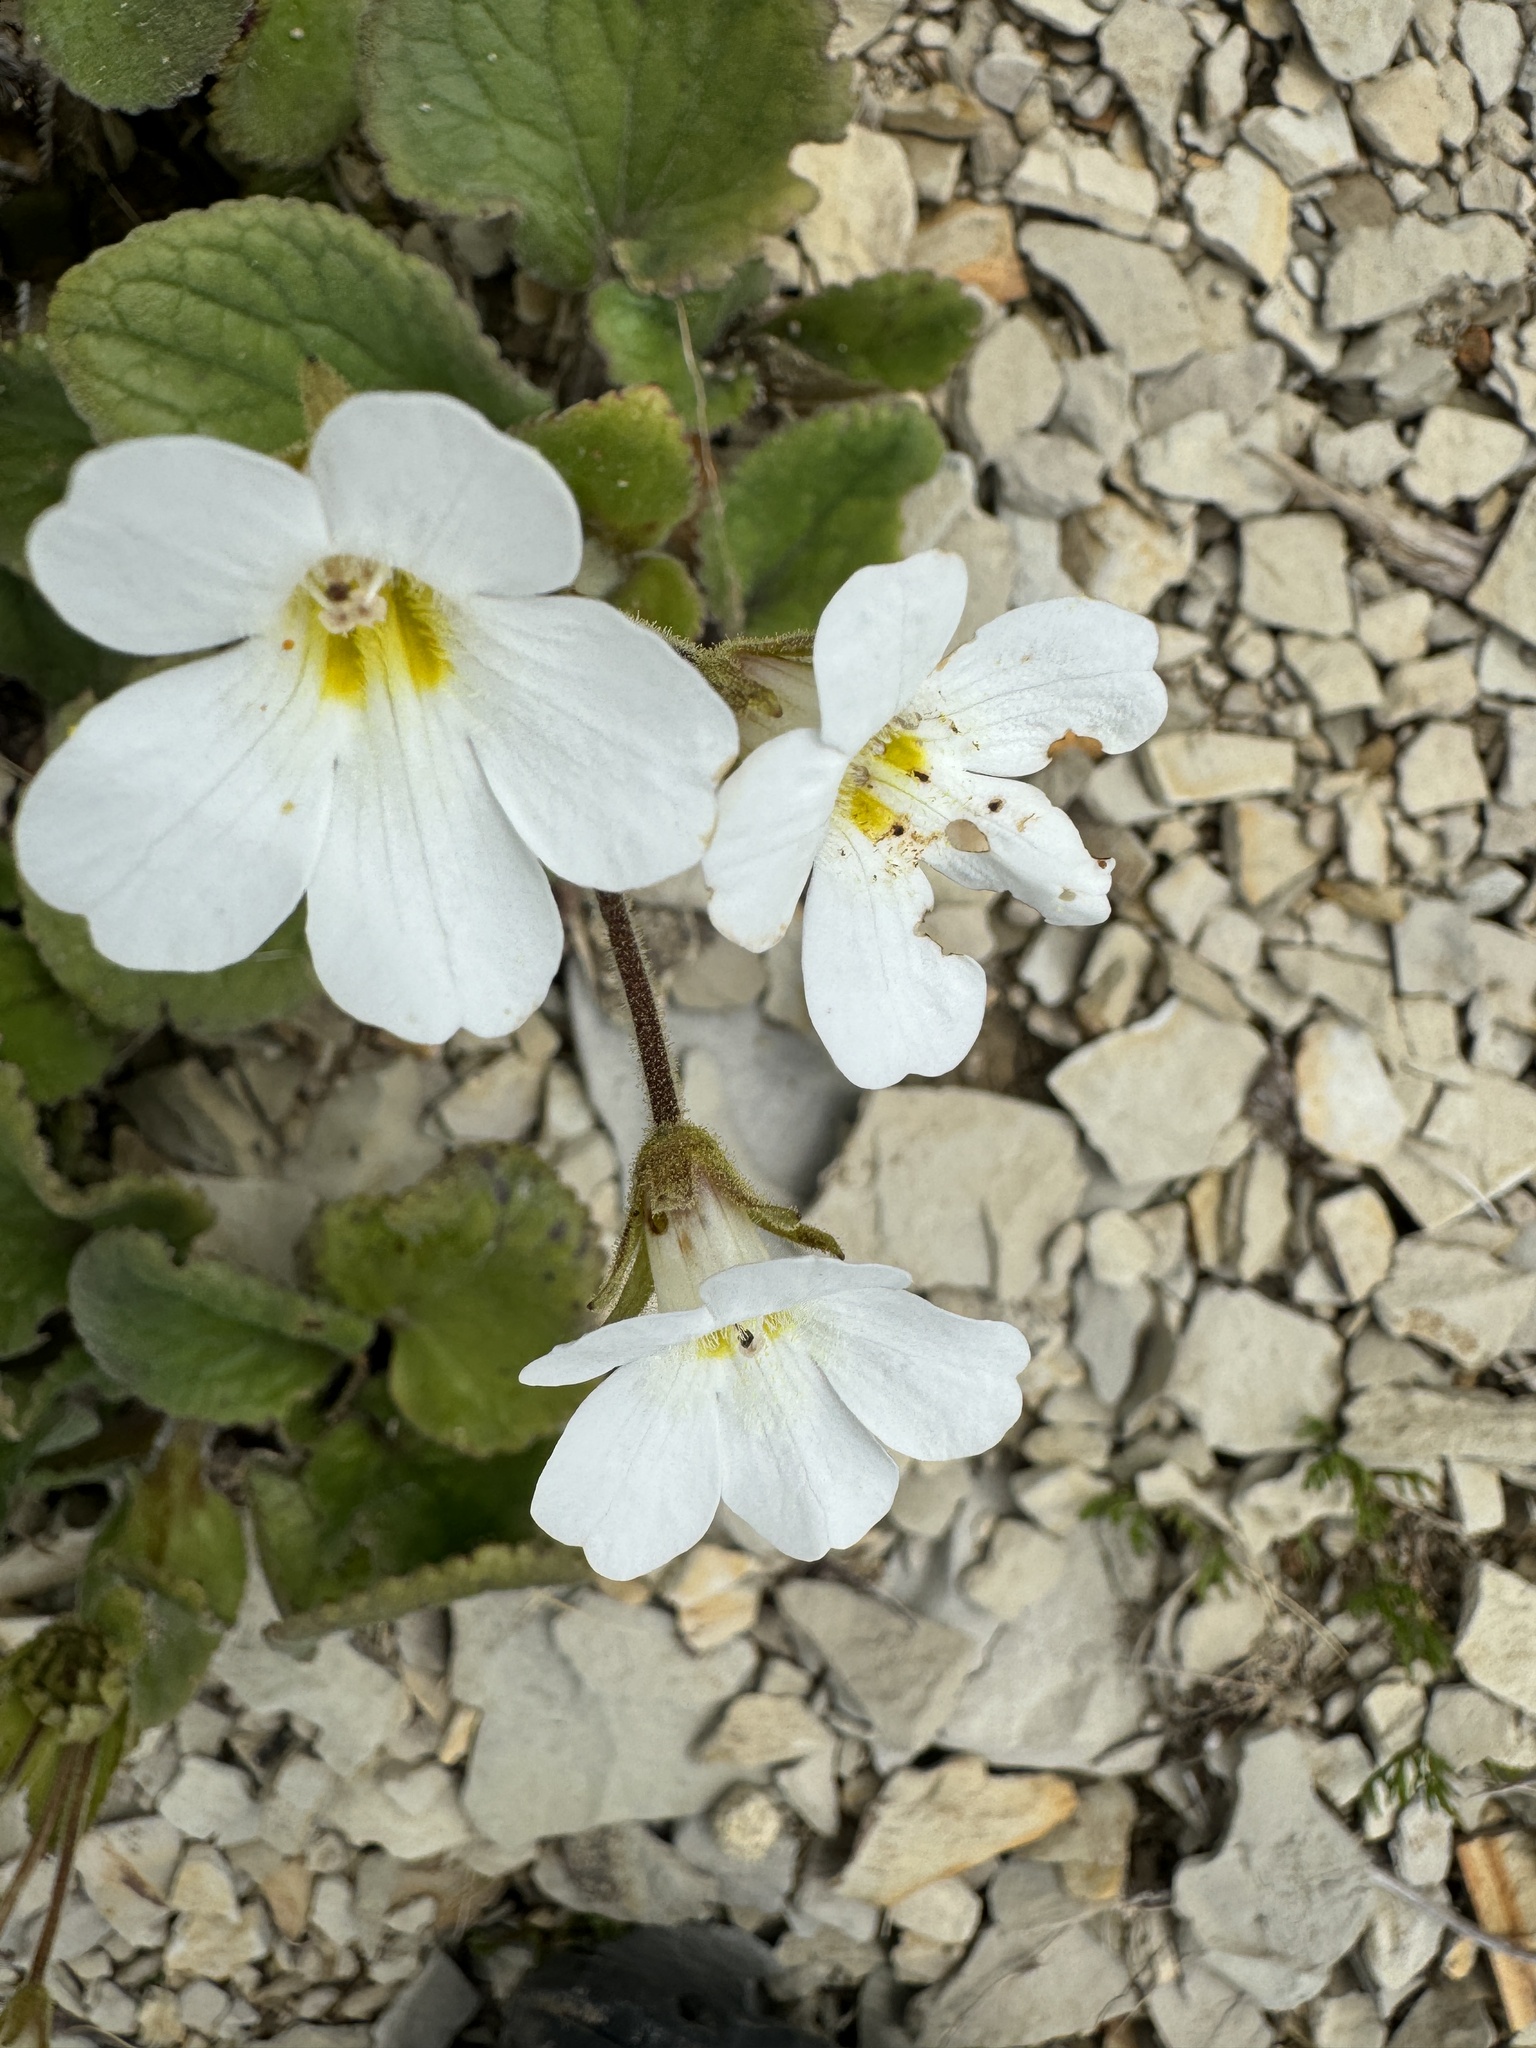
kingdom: Plantae
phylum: Tracheophyta
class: Magnoliopsida
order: Lamiales
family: Plantaginaceae
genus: Ourisia
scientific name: Ourisia macrophylla
